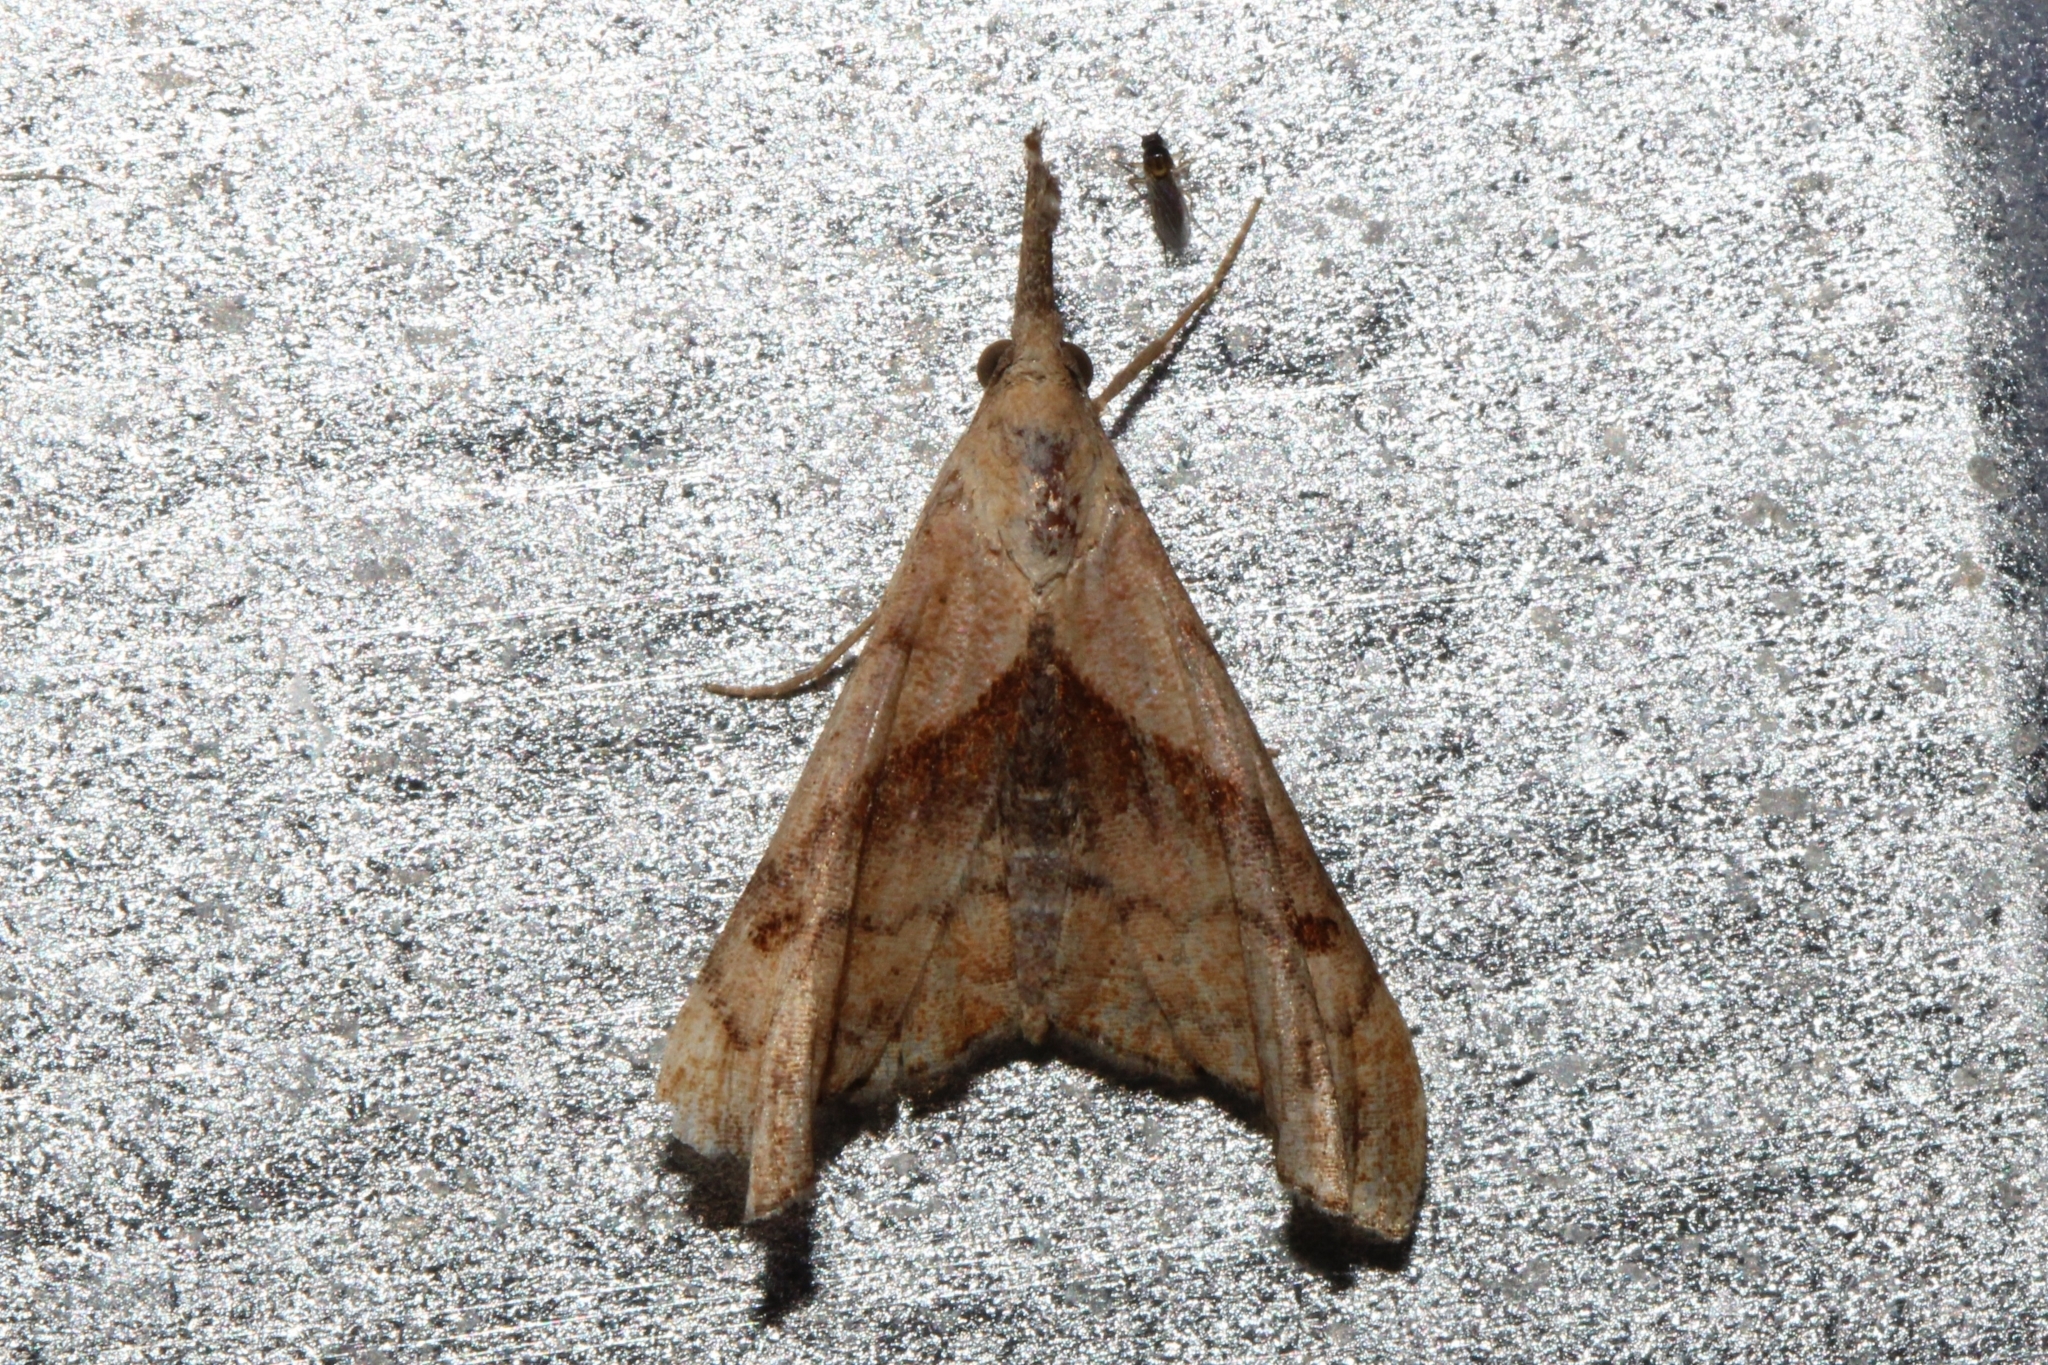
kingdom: Animalia
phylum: Arthropoda
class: Insecta
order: Lepidoptera
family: Erebidae
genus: Palthis
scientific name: Palthis angulalis
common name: Dark-spotted palthis moth
